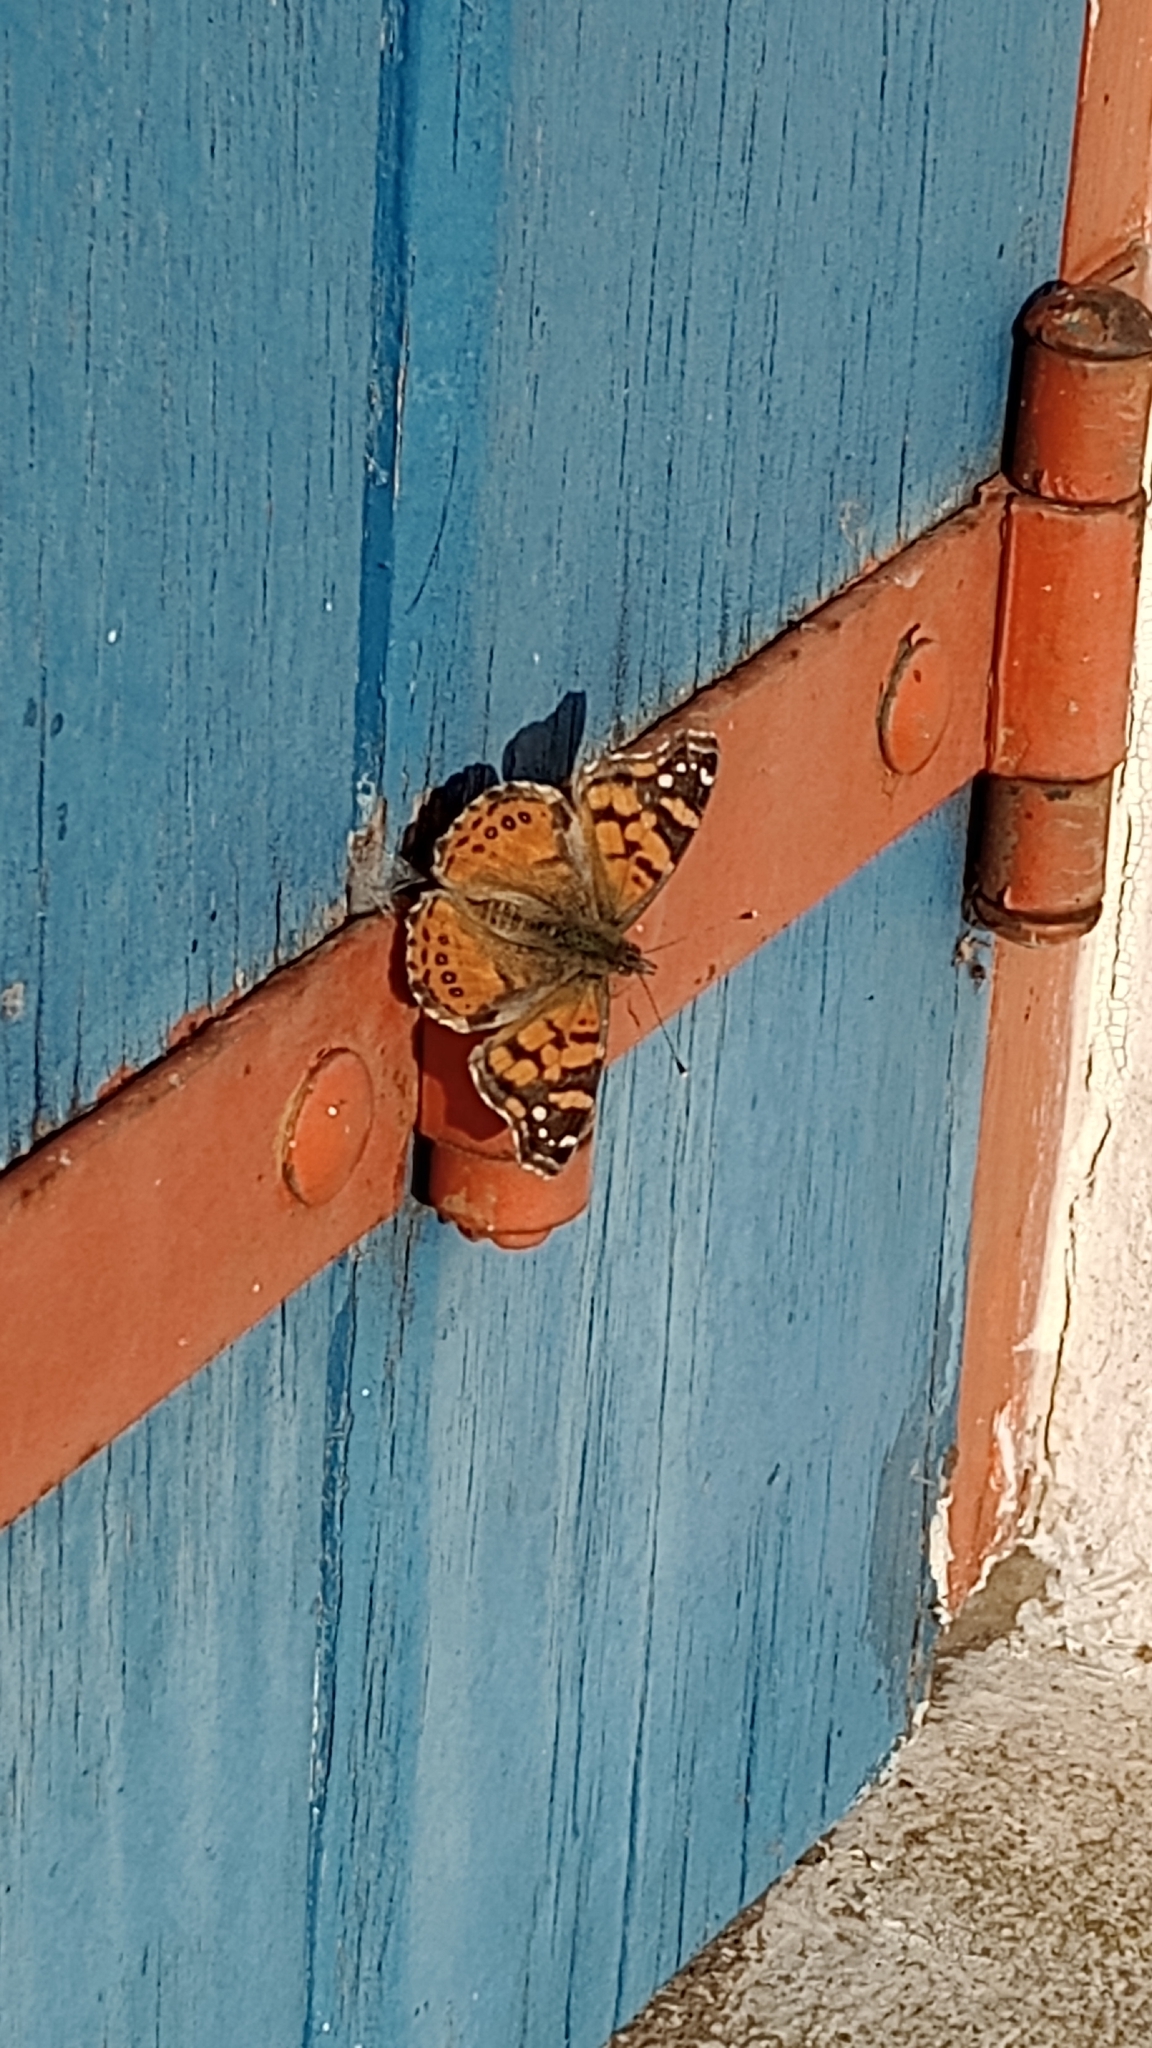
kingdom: Animalia
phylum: Arthropoda
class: Insecta
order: Lepidoptera
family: Nymphalidae
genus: Vanessa
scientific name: Vanessa carye
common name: Subtropical lady
